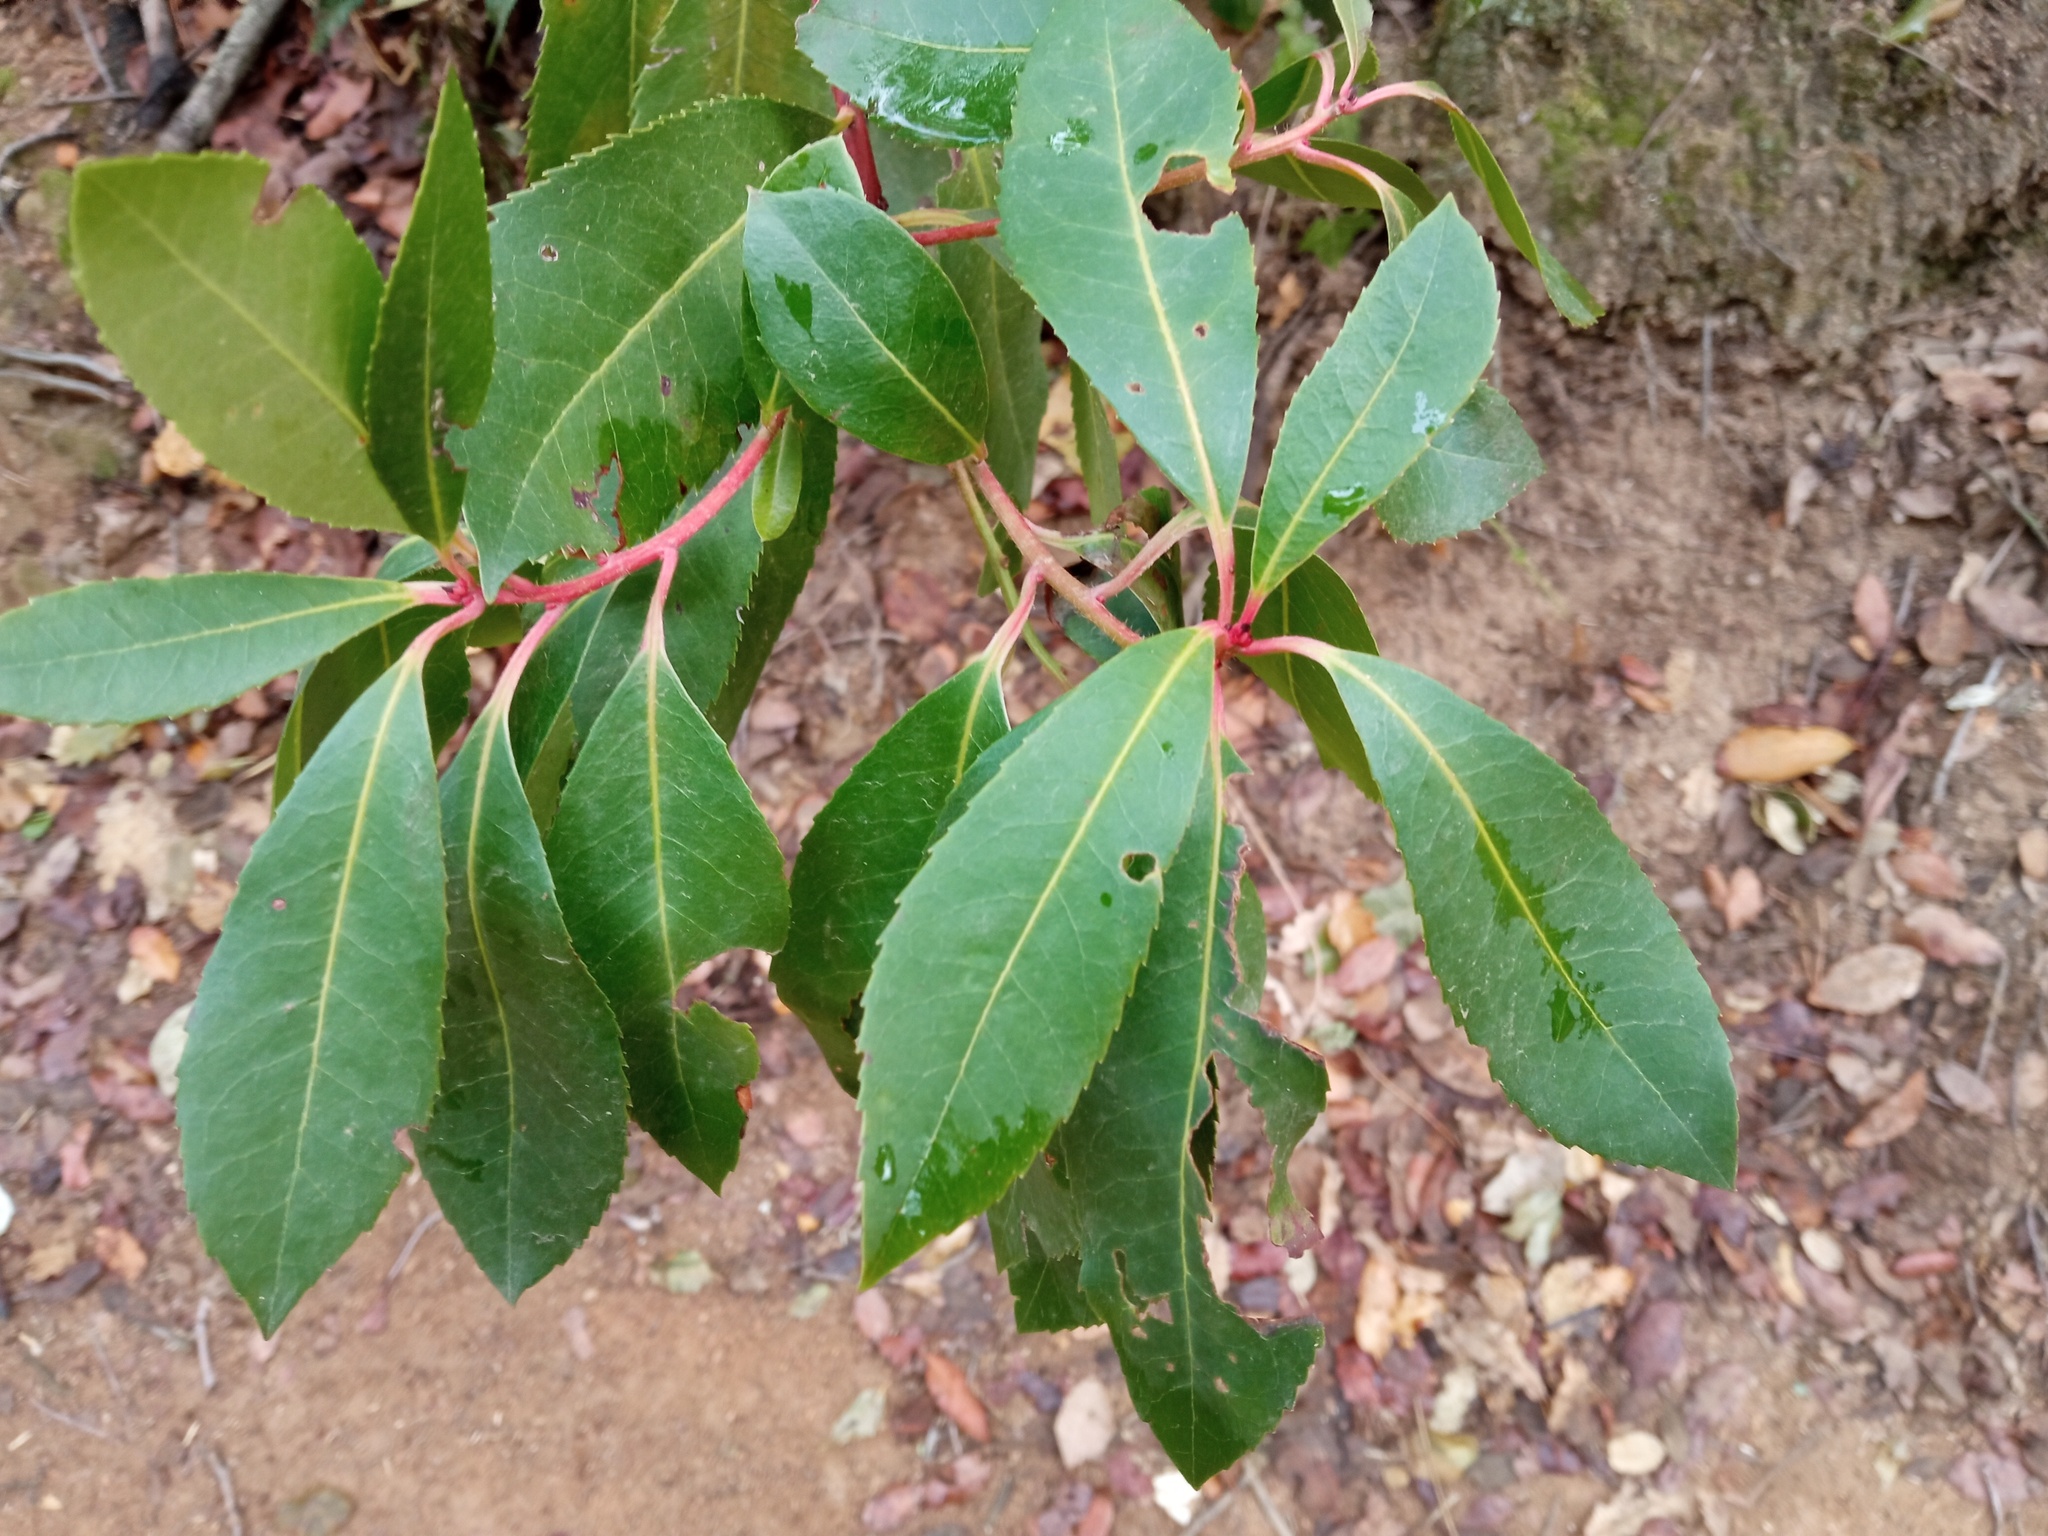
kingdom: Plantae
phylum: Tracheophyta
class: Magnoliopsida
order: Ericales
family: Ericaceae
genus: Arbutus
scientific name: Arbutus unedo
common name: Strawberry-tree
